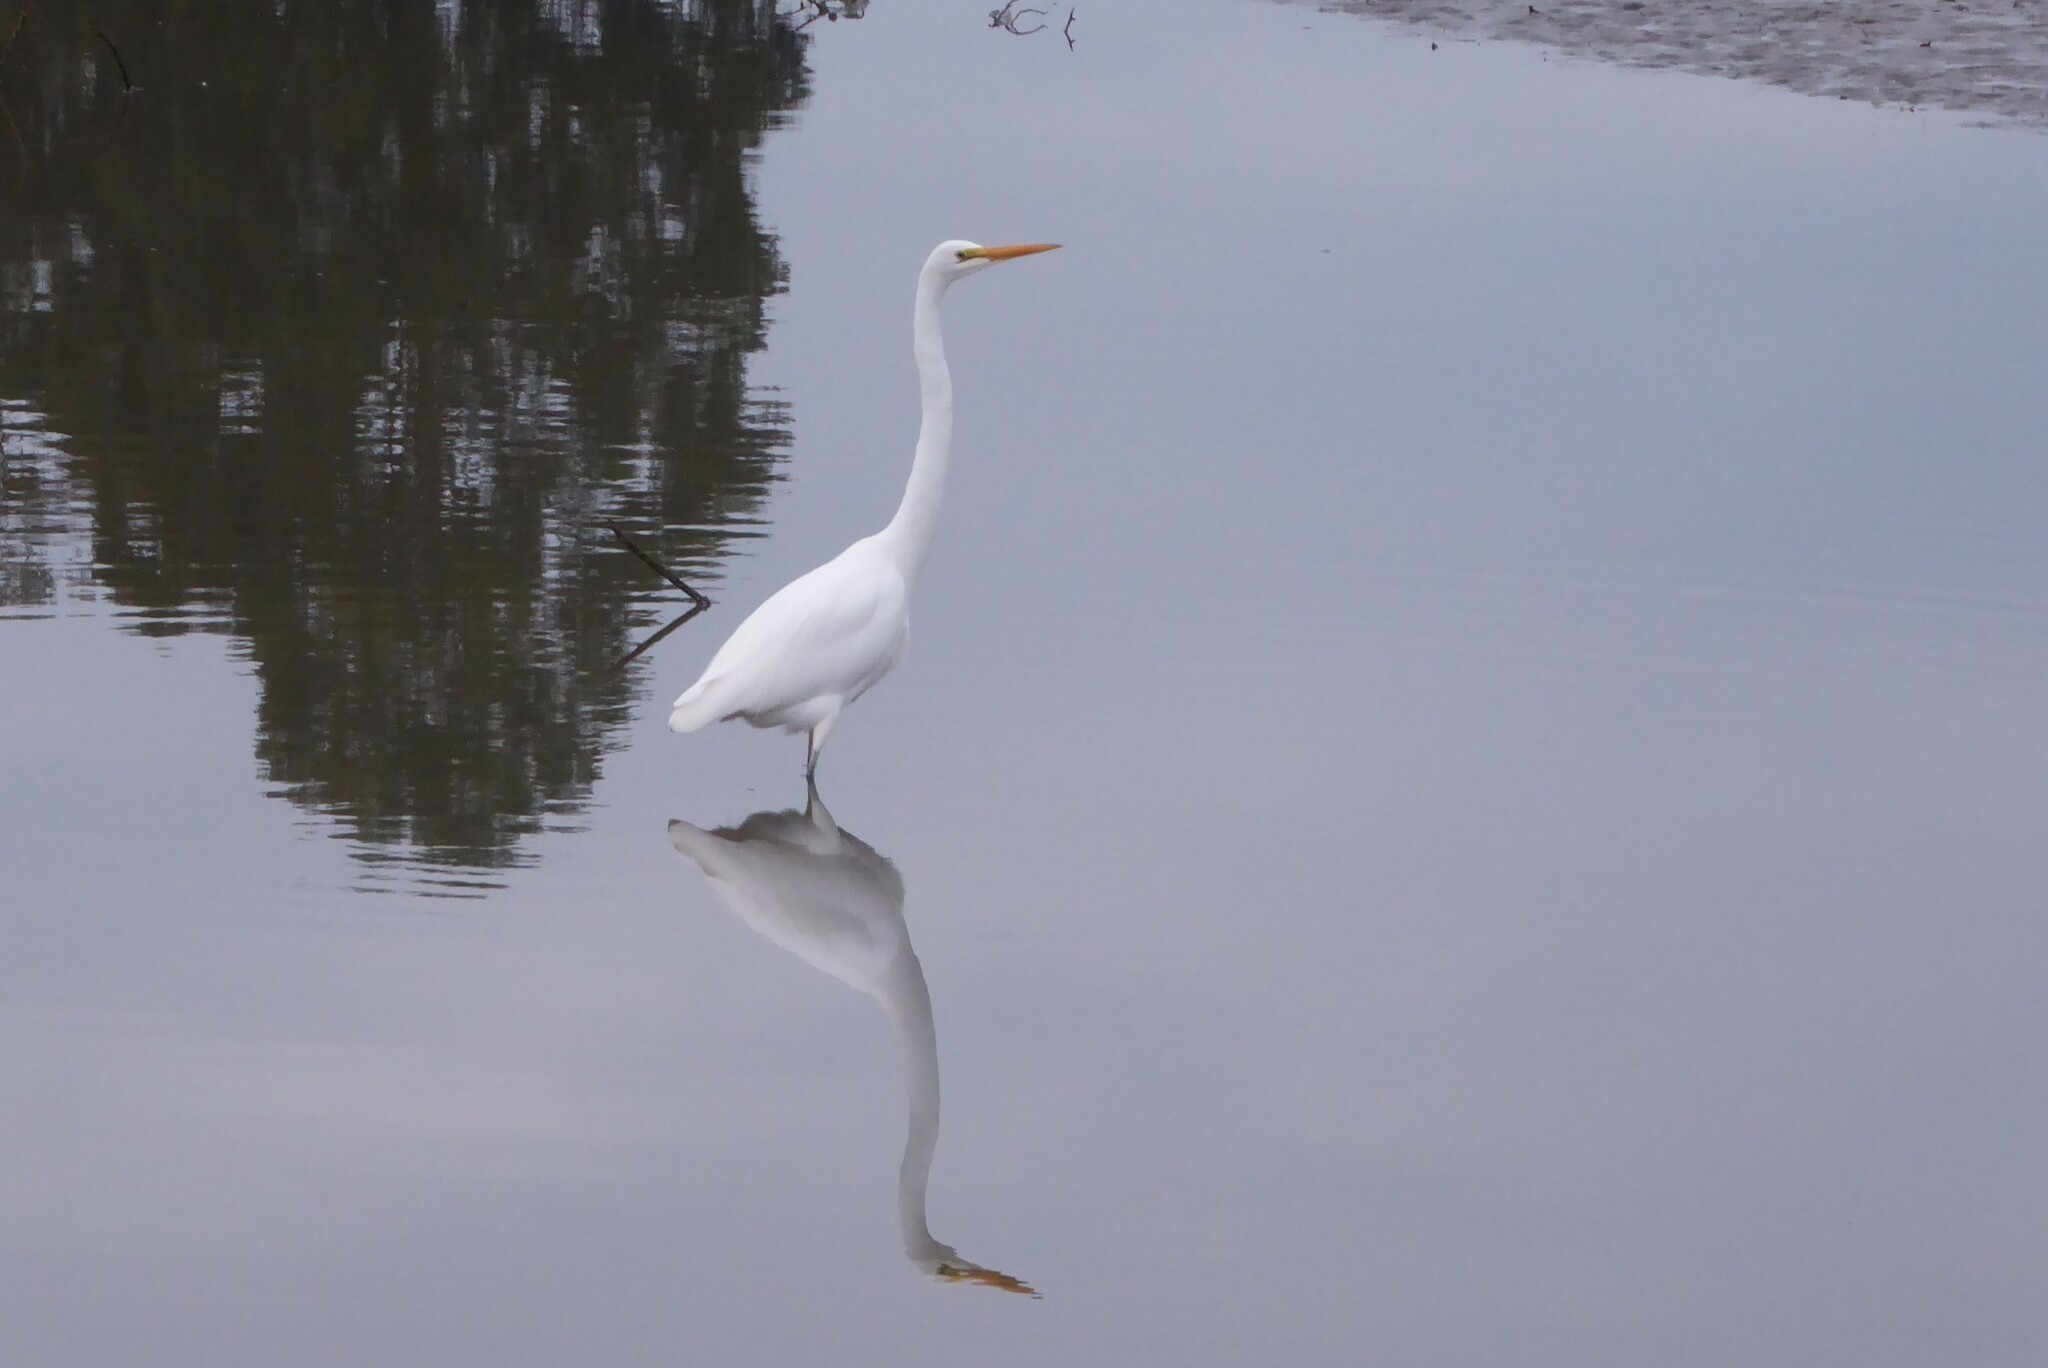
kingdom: Animalia
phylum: Chordata
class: Aves
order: Pelecaniformes
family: Ardeidae
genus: Ardea
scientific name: Ardea modesta
